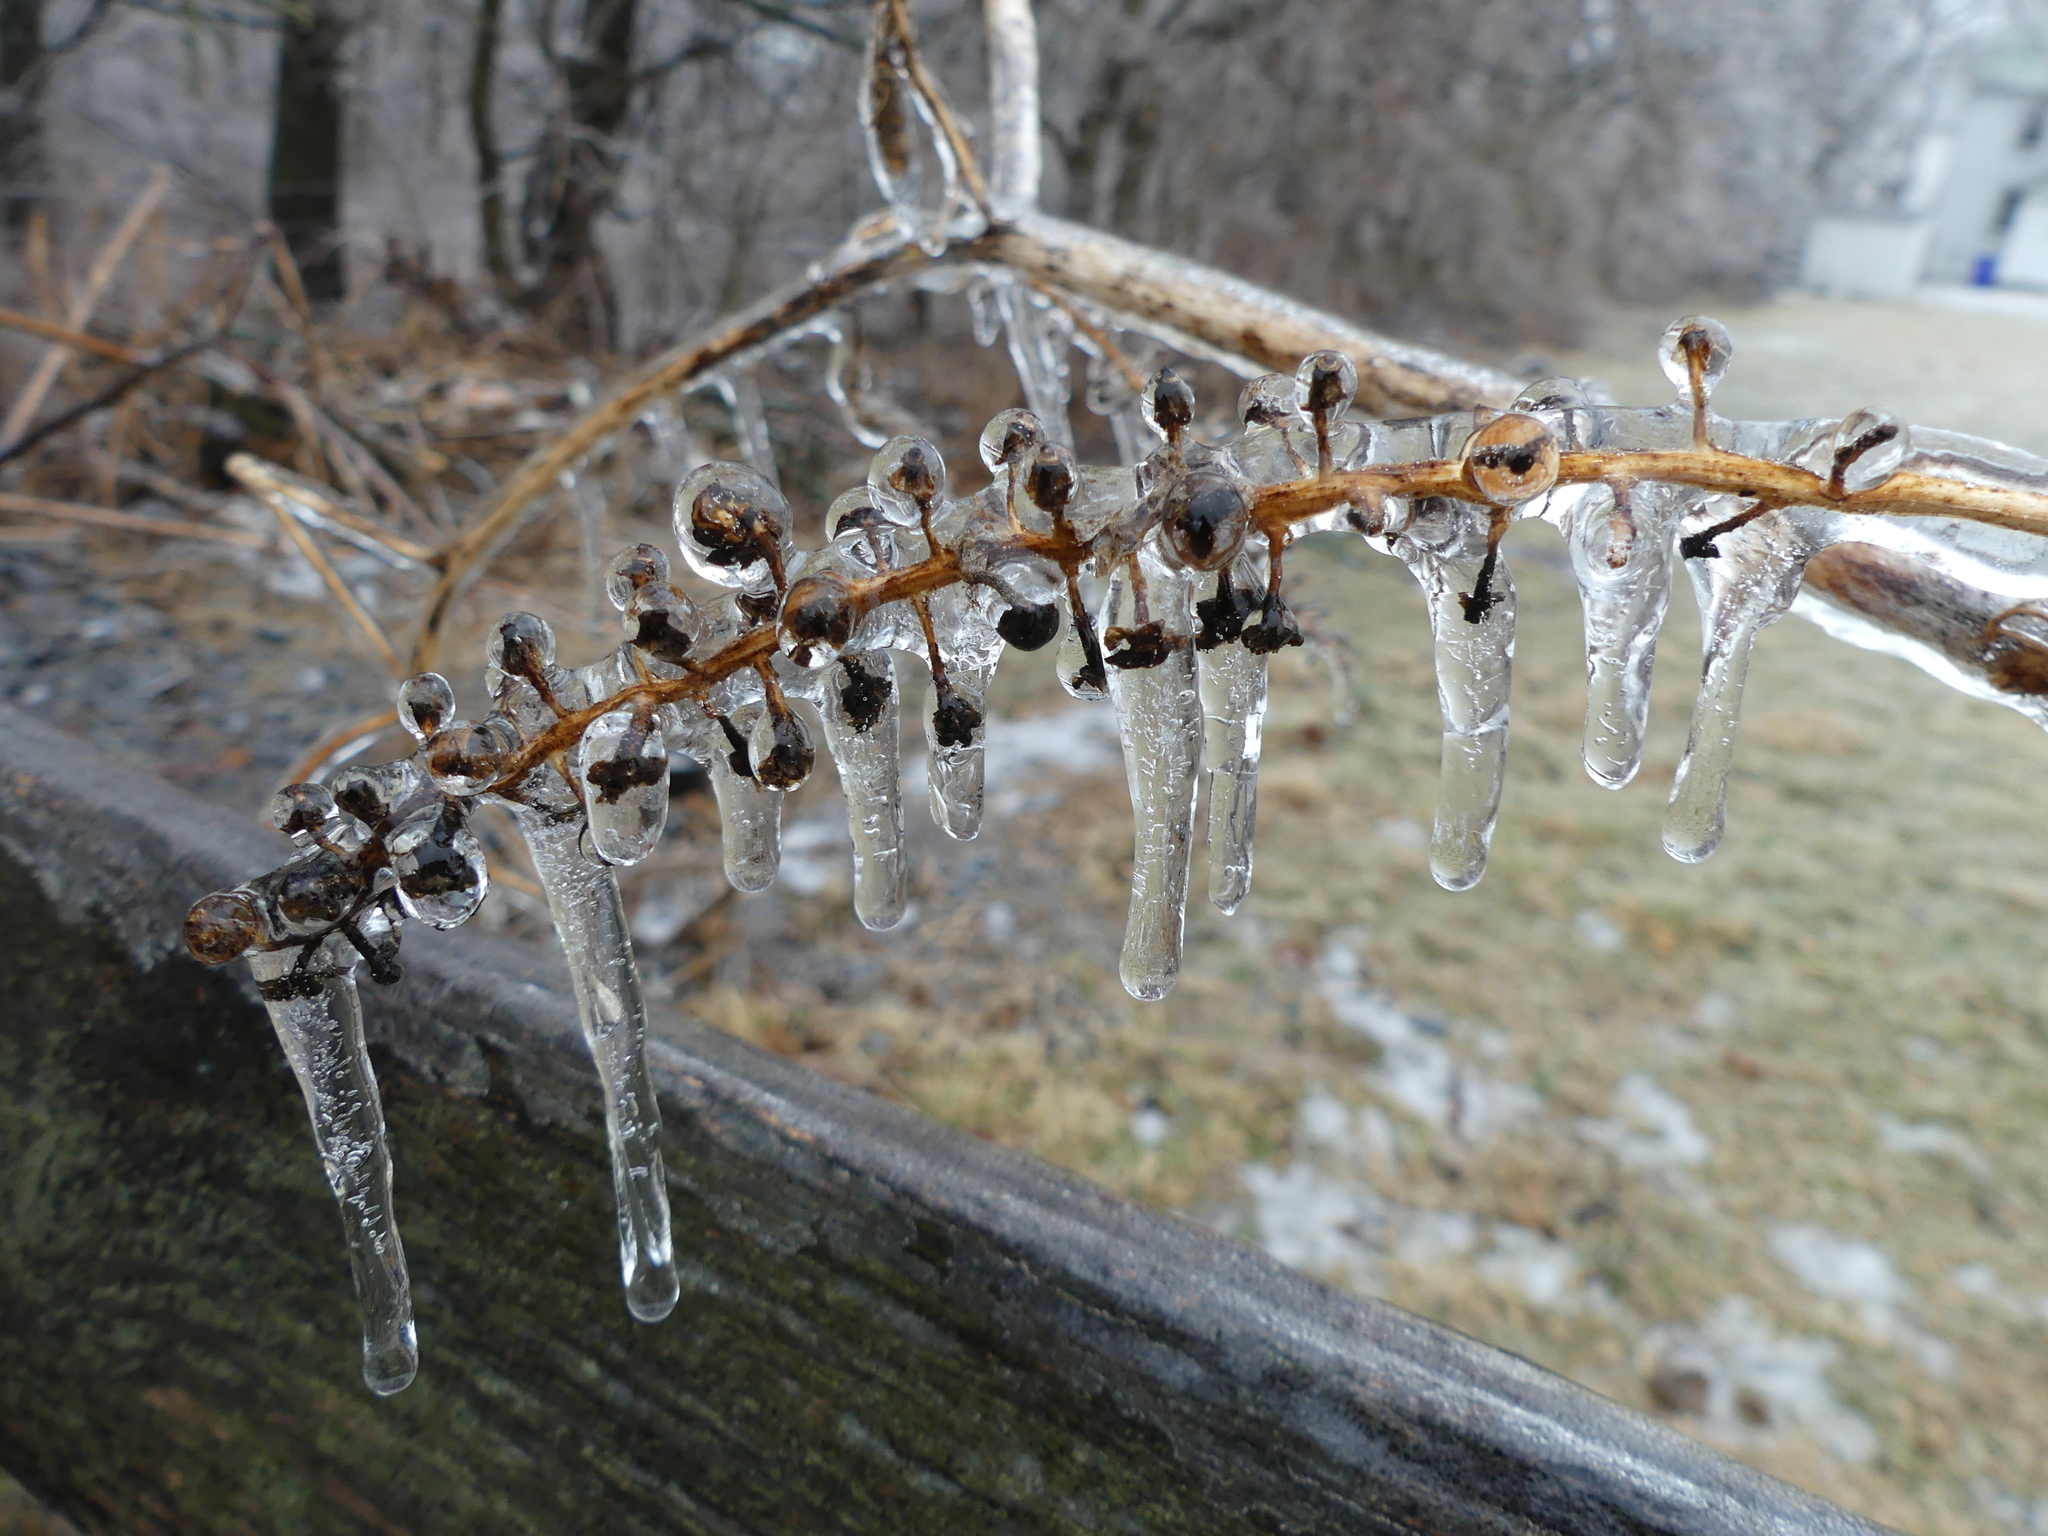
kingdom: Plantae
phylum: Tracheophyta
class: Magnoliopsida
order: Caryophyllales
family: Phytolaccaceae
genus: Phytolacca
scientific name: Phytolacca americana
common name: American pokeweed
